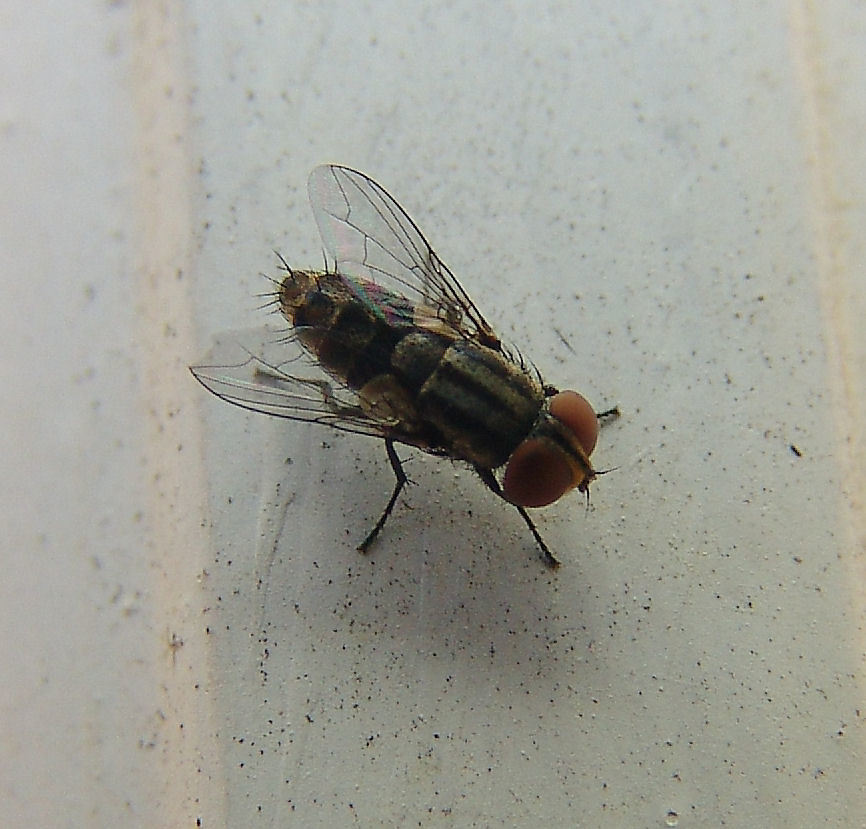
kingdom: Animalia
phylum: Arthropoda
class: Insecta
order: Hymenoptera
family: Vespidae
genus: Eumenes
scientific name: Eumenes fraternus
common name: Fraternal potter wasp
